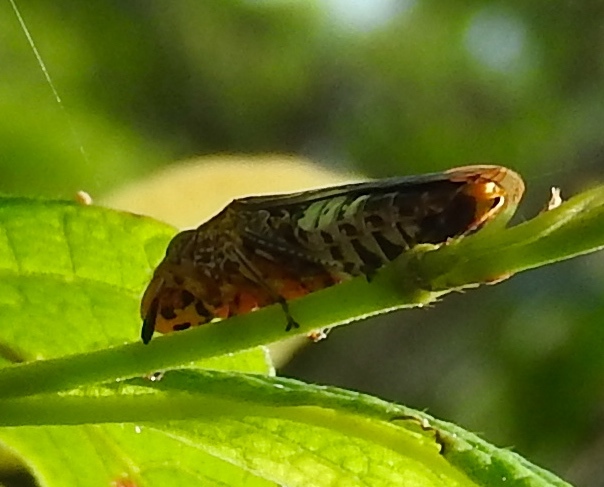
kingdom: Animalia
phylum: Arthropoda
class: Insecta
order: Hemiptera
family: Cicadellidae
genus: Homalodisca
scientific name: Homalodisca ichthyocephala
